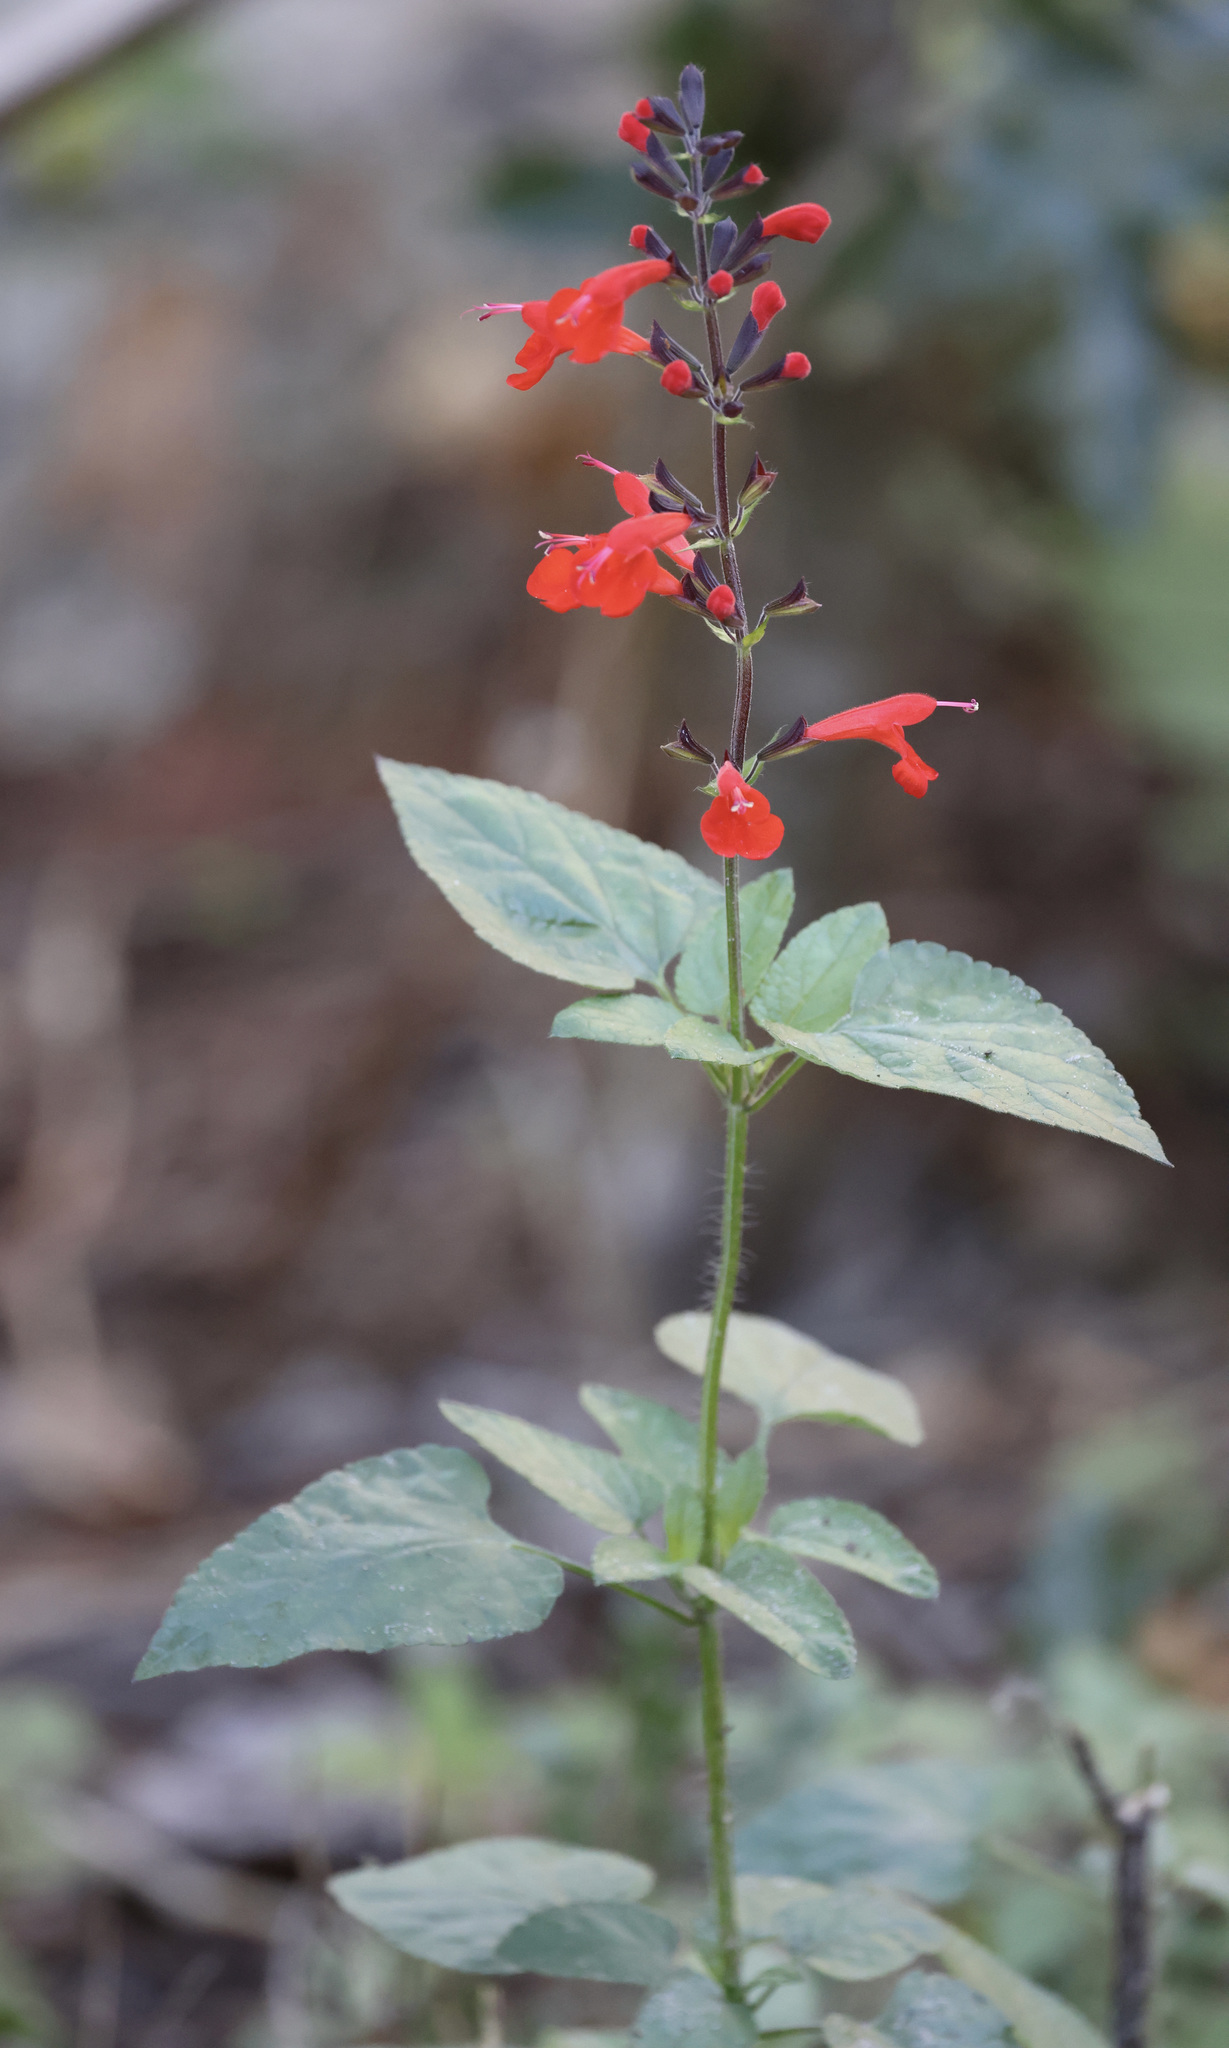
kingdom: Plantae
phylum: Tracheophyta
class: Magnoliopsida
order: Lamiales
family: Lamiaceae
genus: Salvia
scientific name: Salvia coccinea
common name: Blood sage
